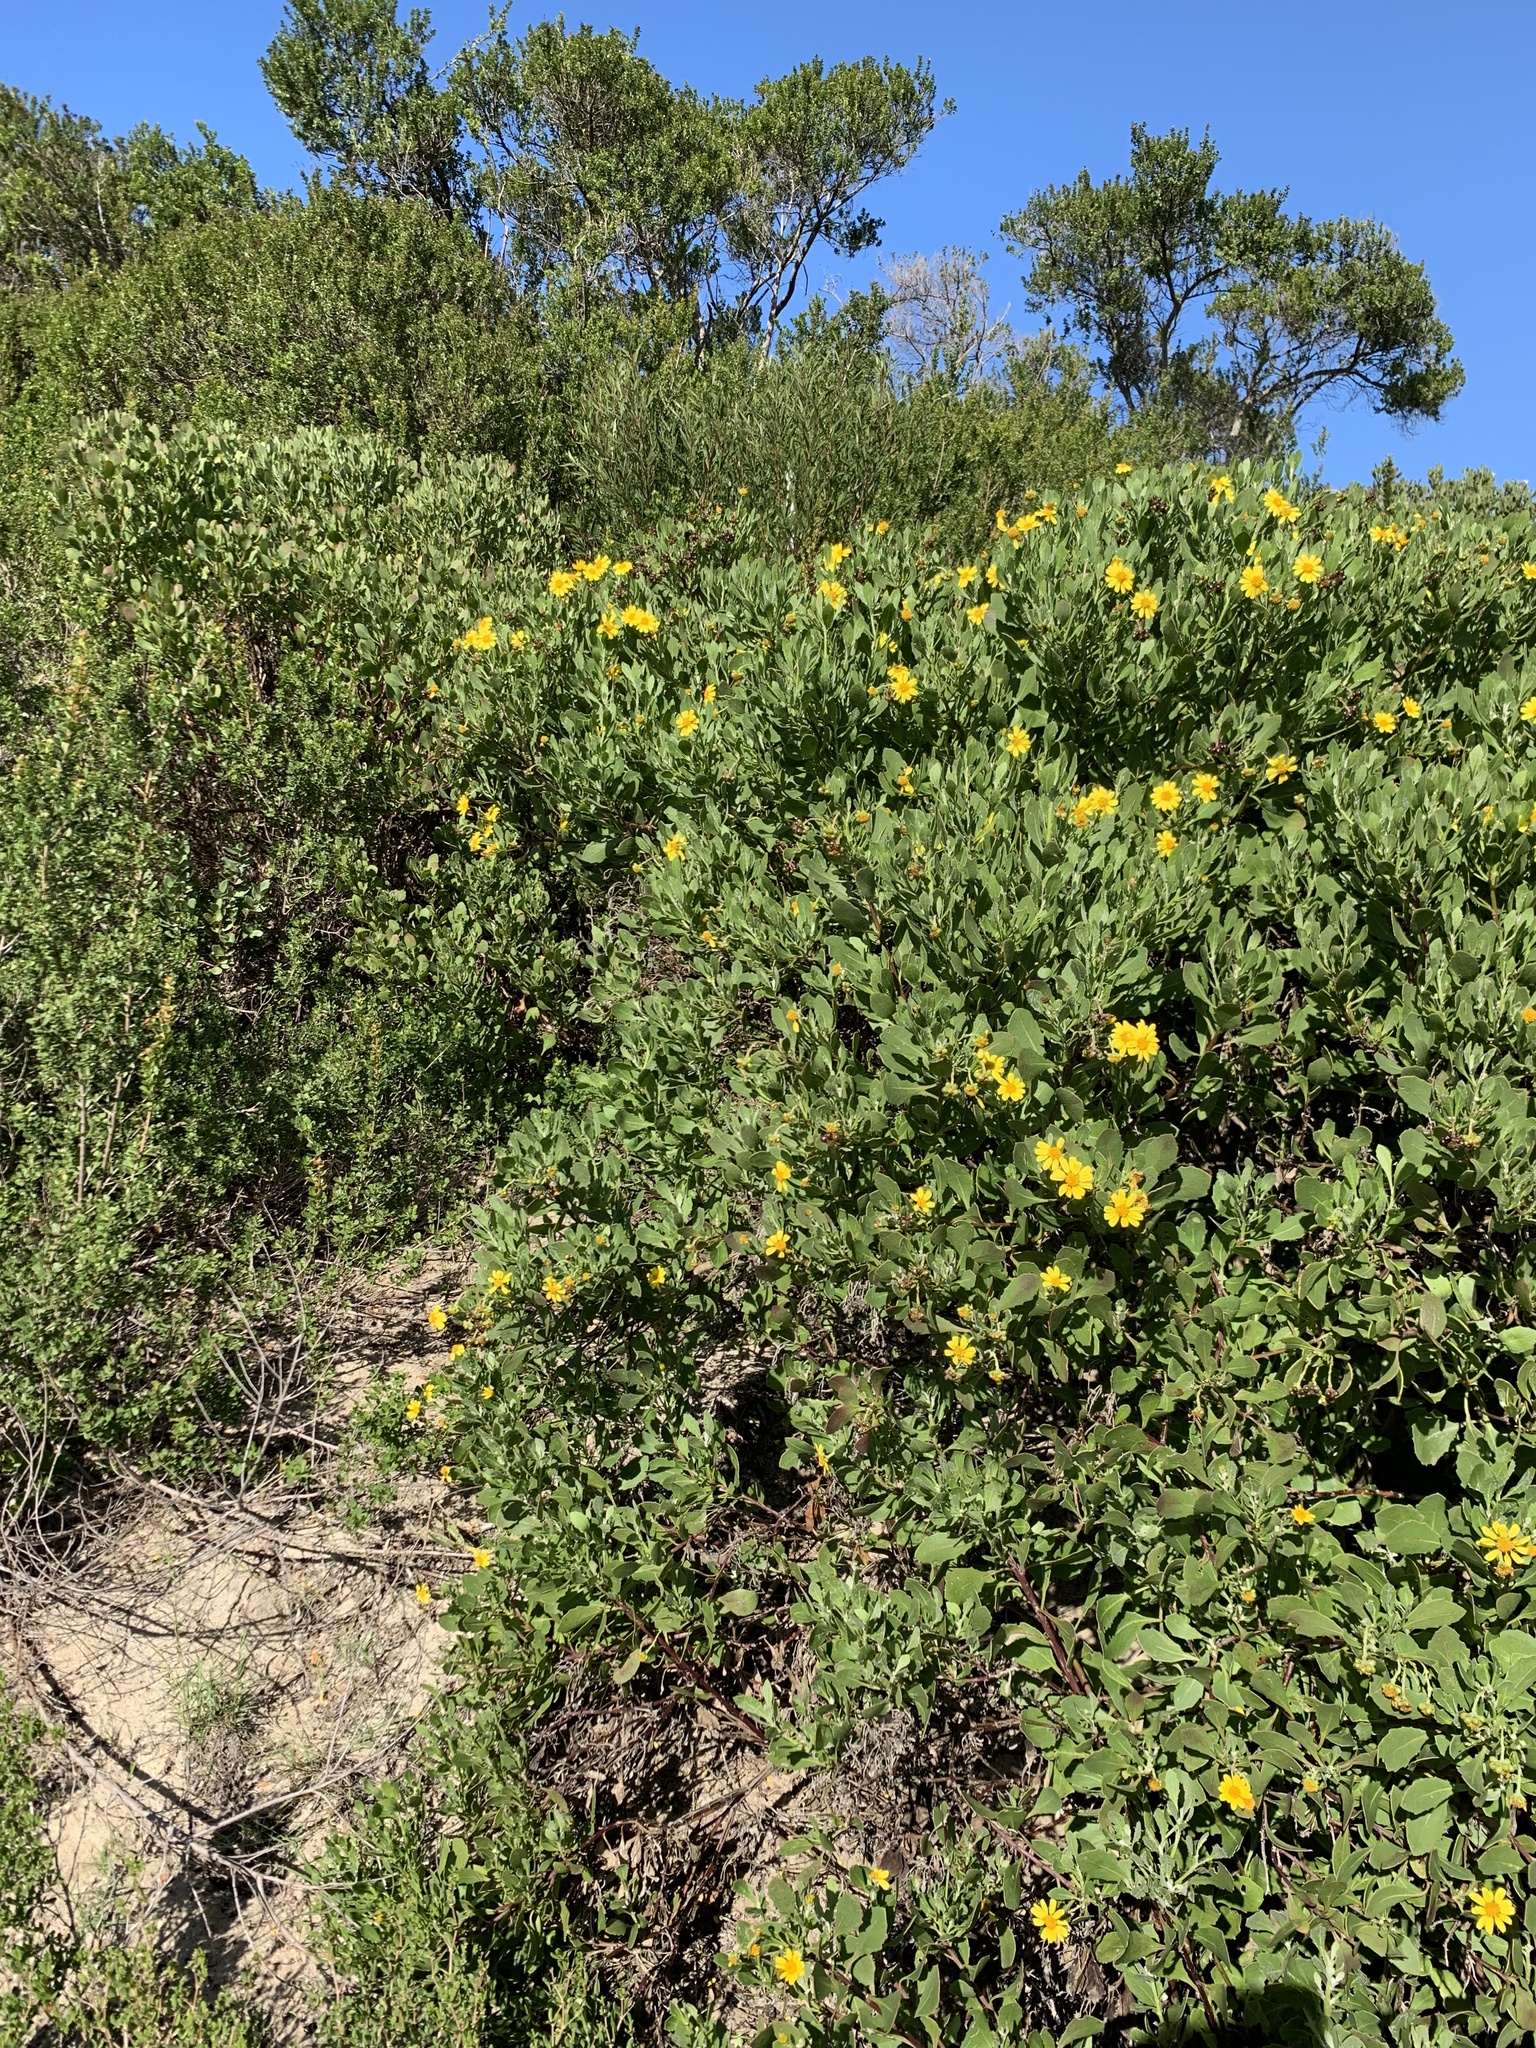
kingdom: Plantae
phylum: Tracheophyta
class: Magnoliopsida
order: Asterales
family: Asteraceae
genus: Osteospermum
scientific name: Osteospermum moniliferum
